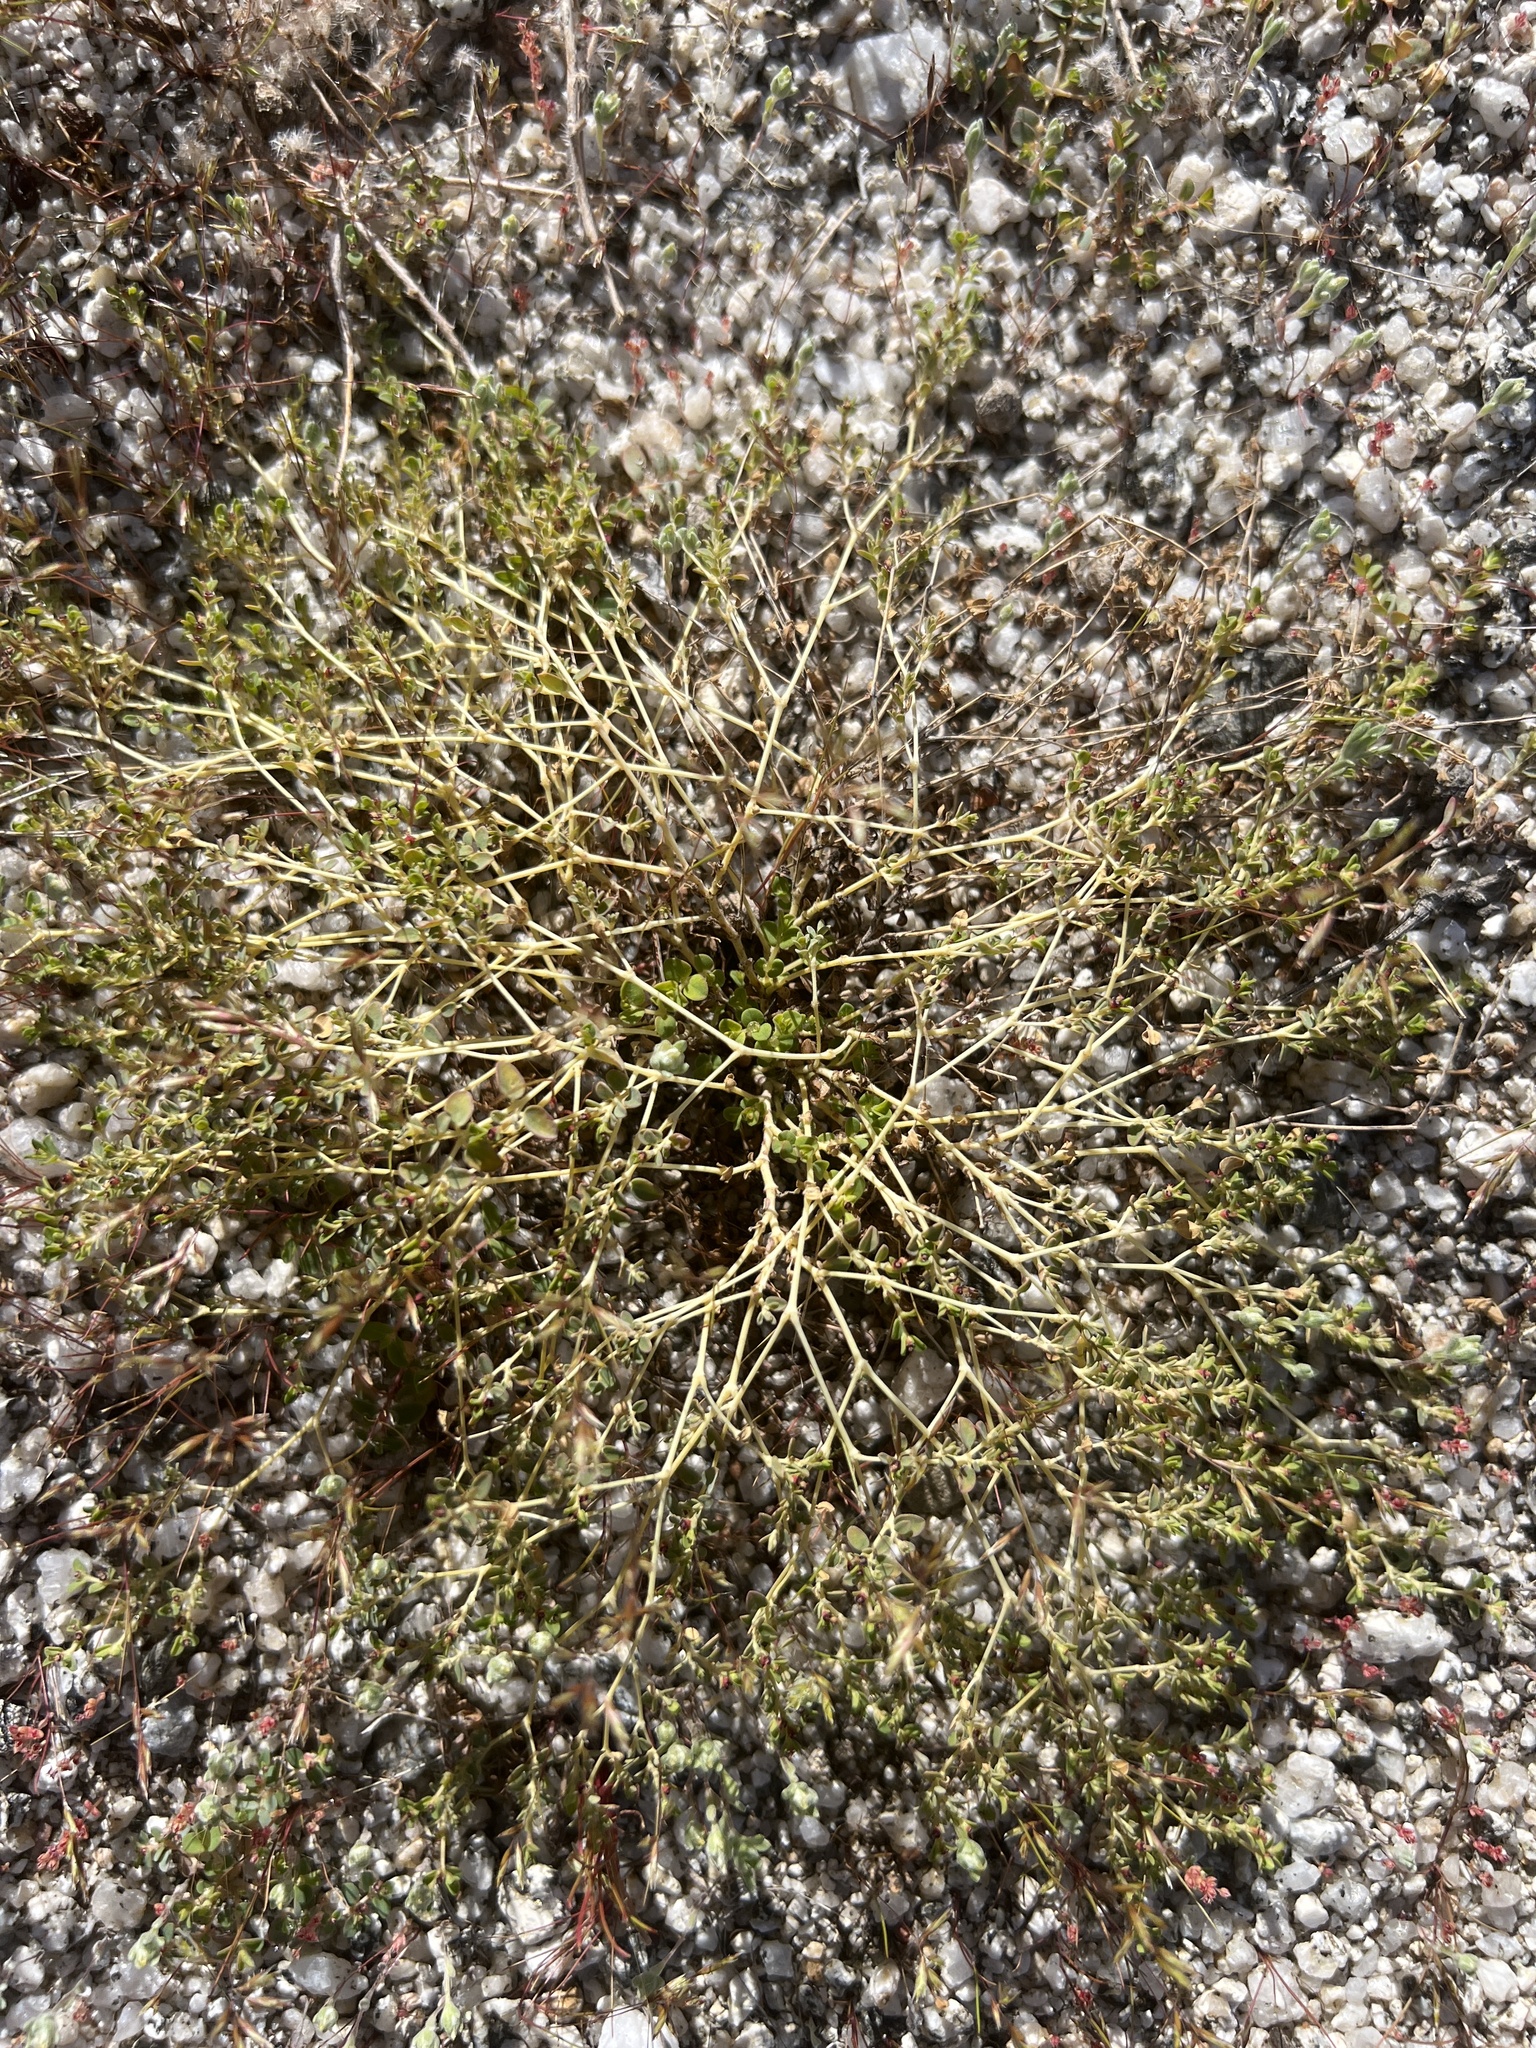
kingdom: Plantae
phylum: Tracheophyta
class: Magnoliopsida
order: Malpighiales
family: Euphorbiaceae
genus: Euphorbia
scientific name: Euphorbia polycarpa
